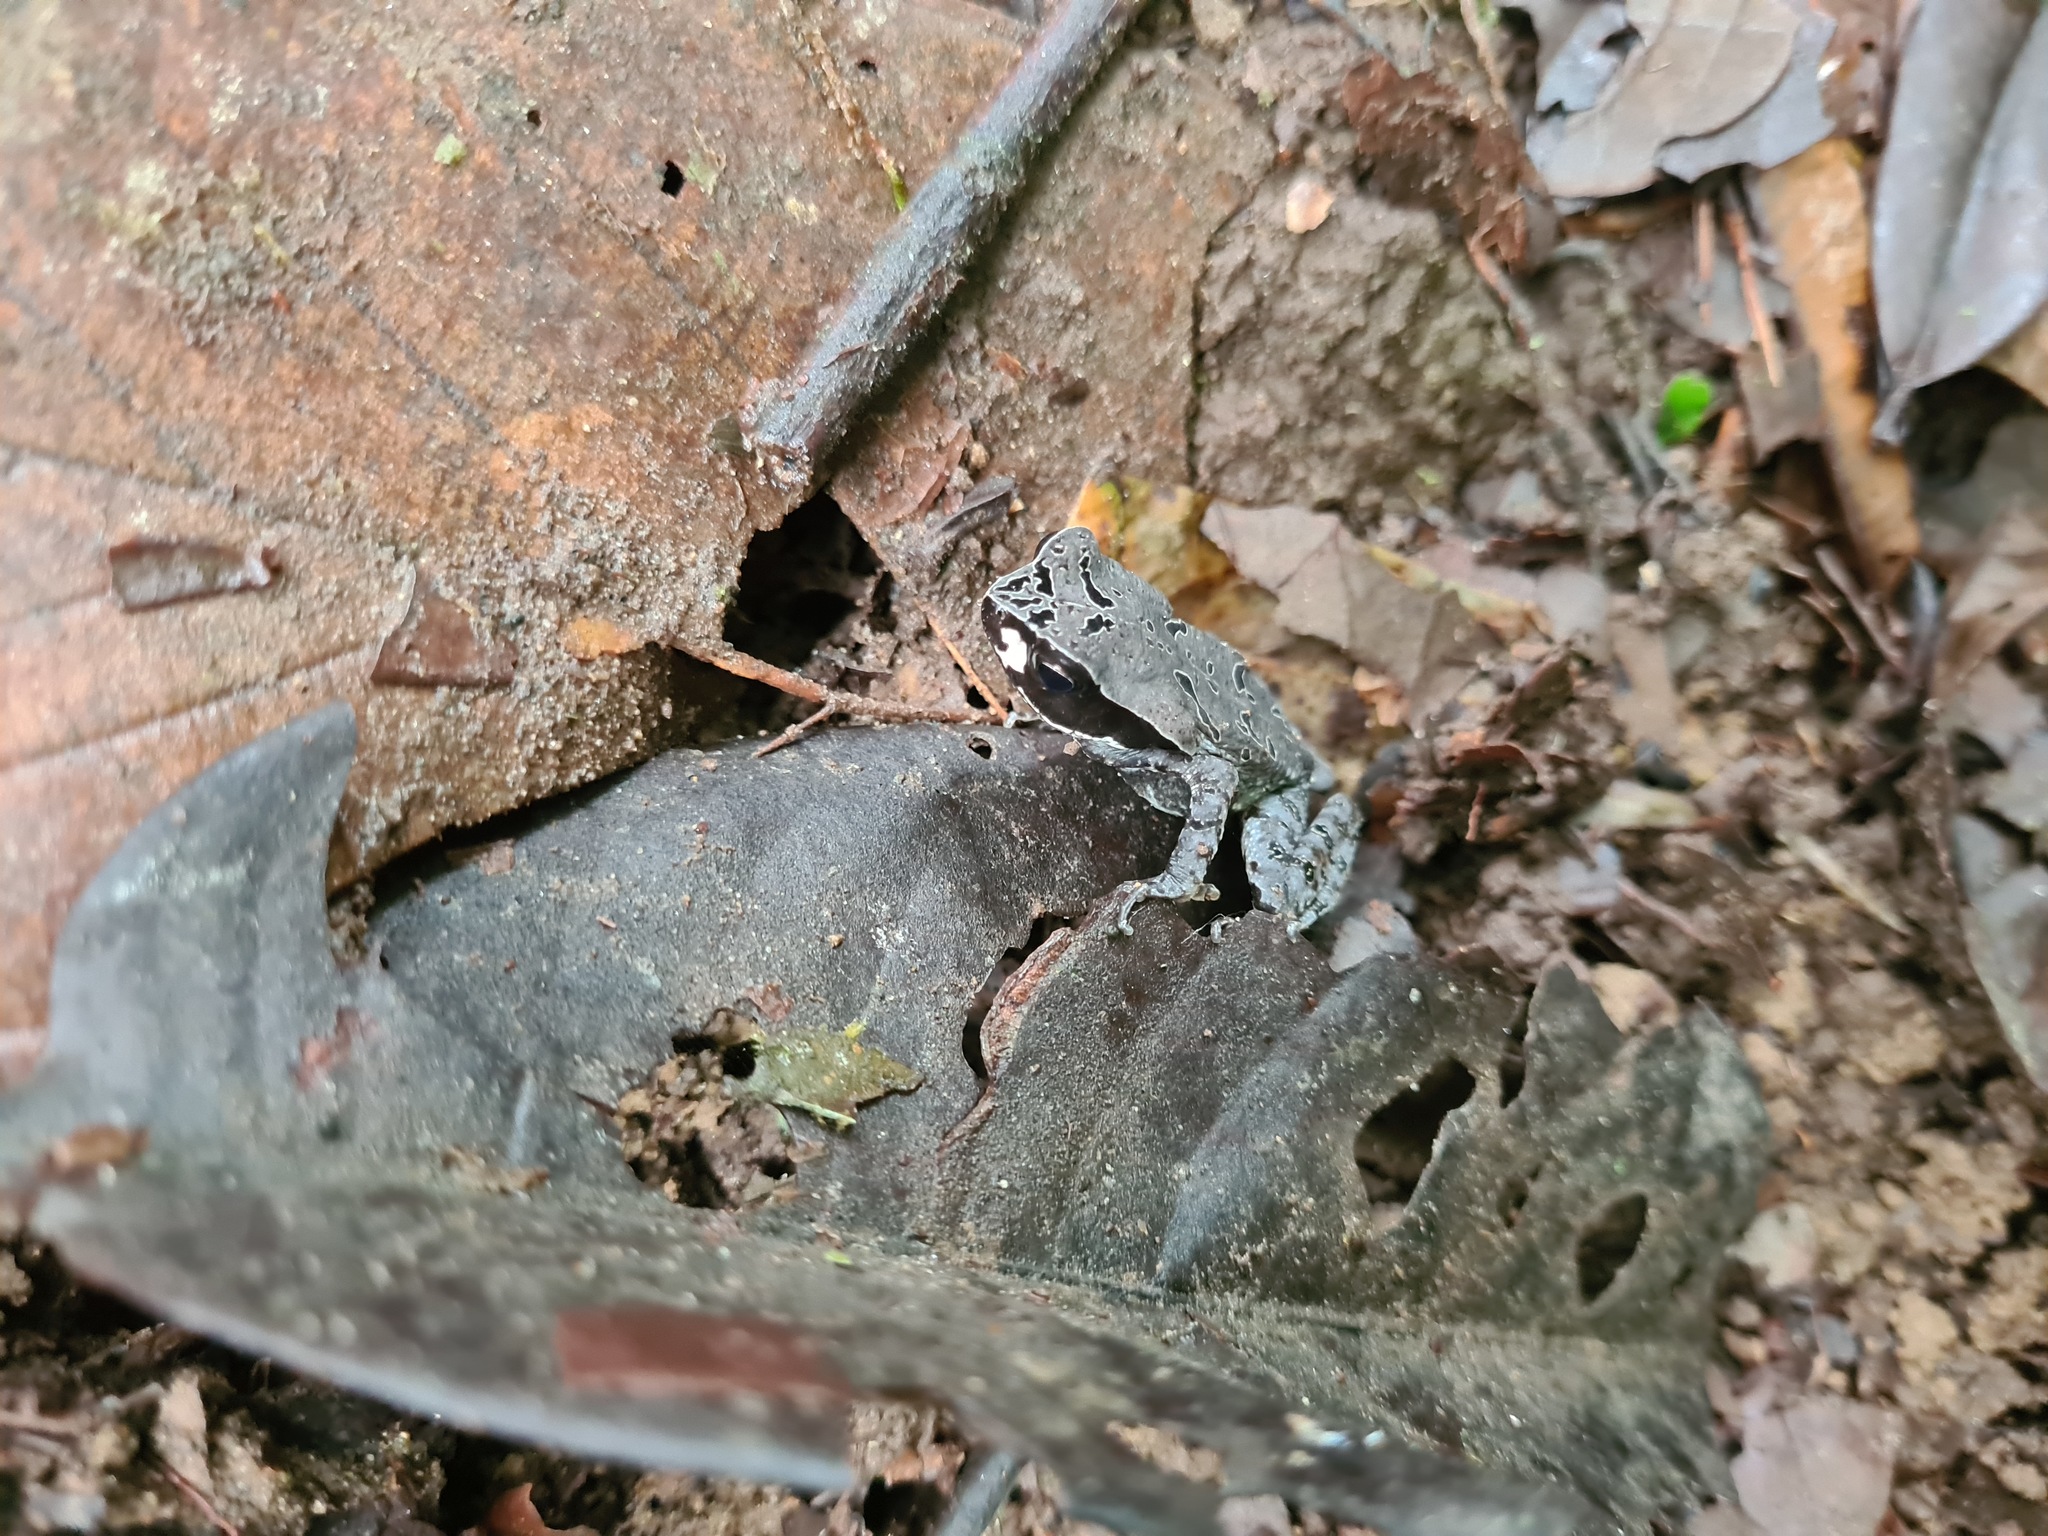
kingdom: Animalia
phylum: Chordata
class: Amphibia
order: Anura
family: Bufonidae
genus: Rhaebo
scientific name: Rhaebo haematiticus
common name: Truando toad
